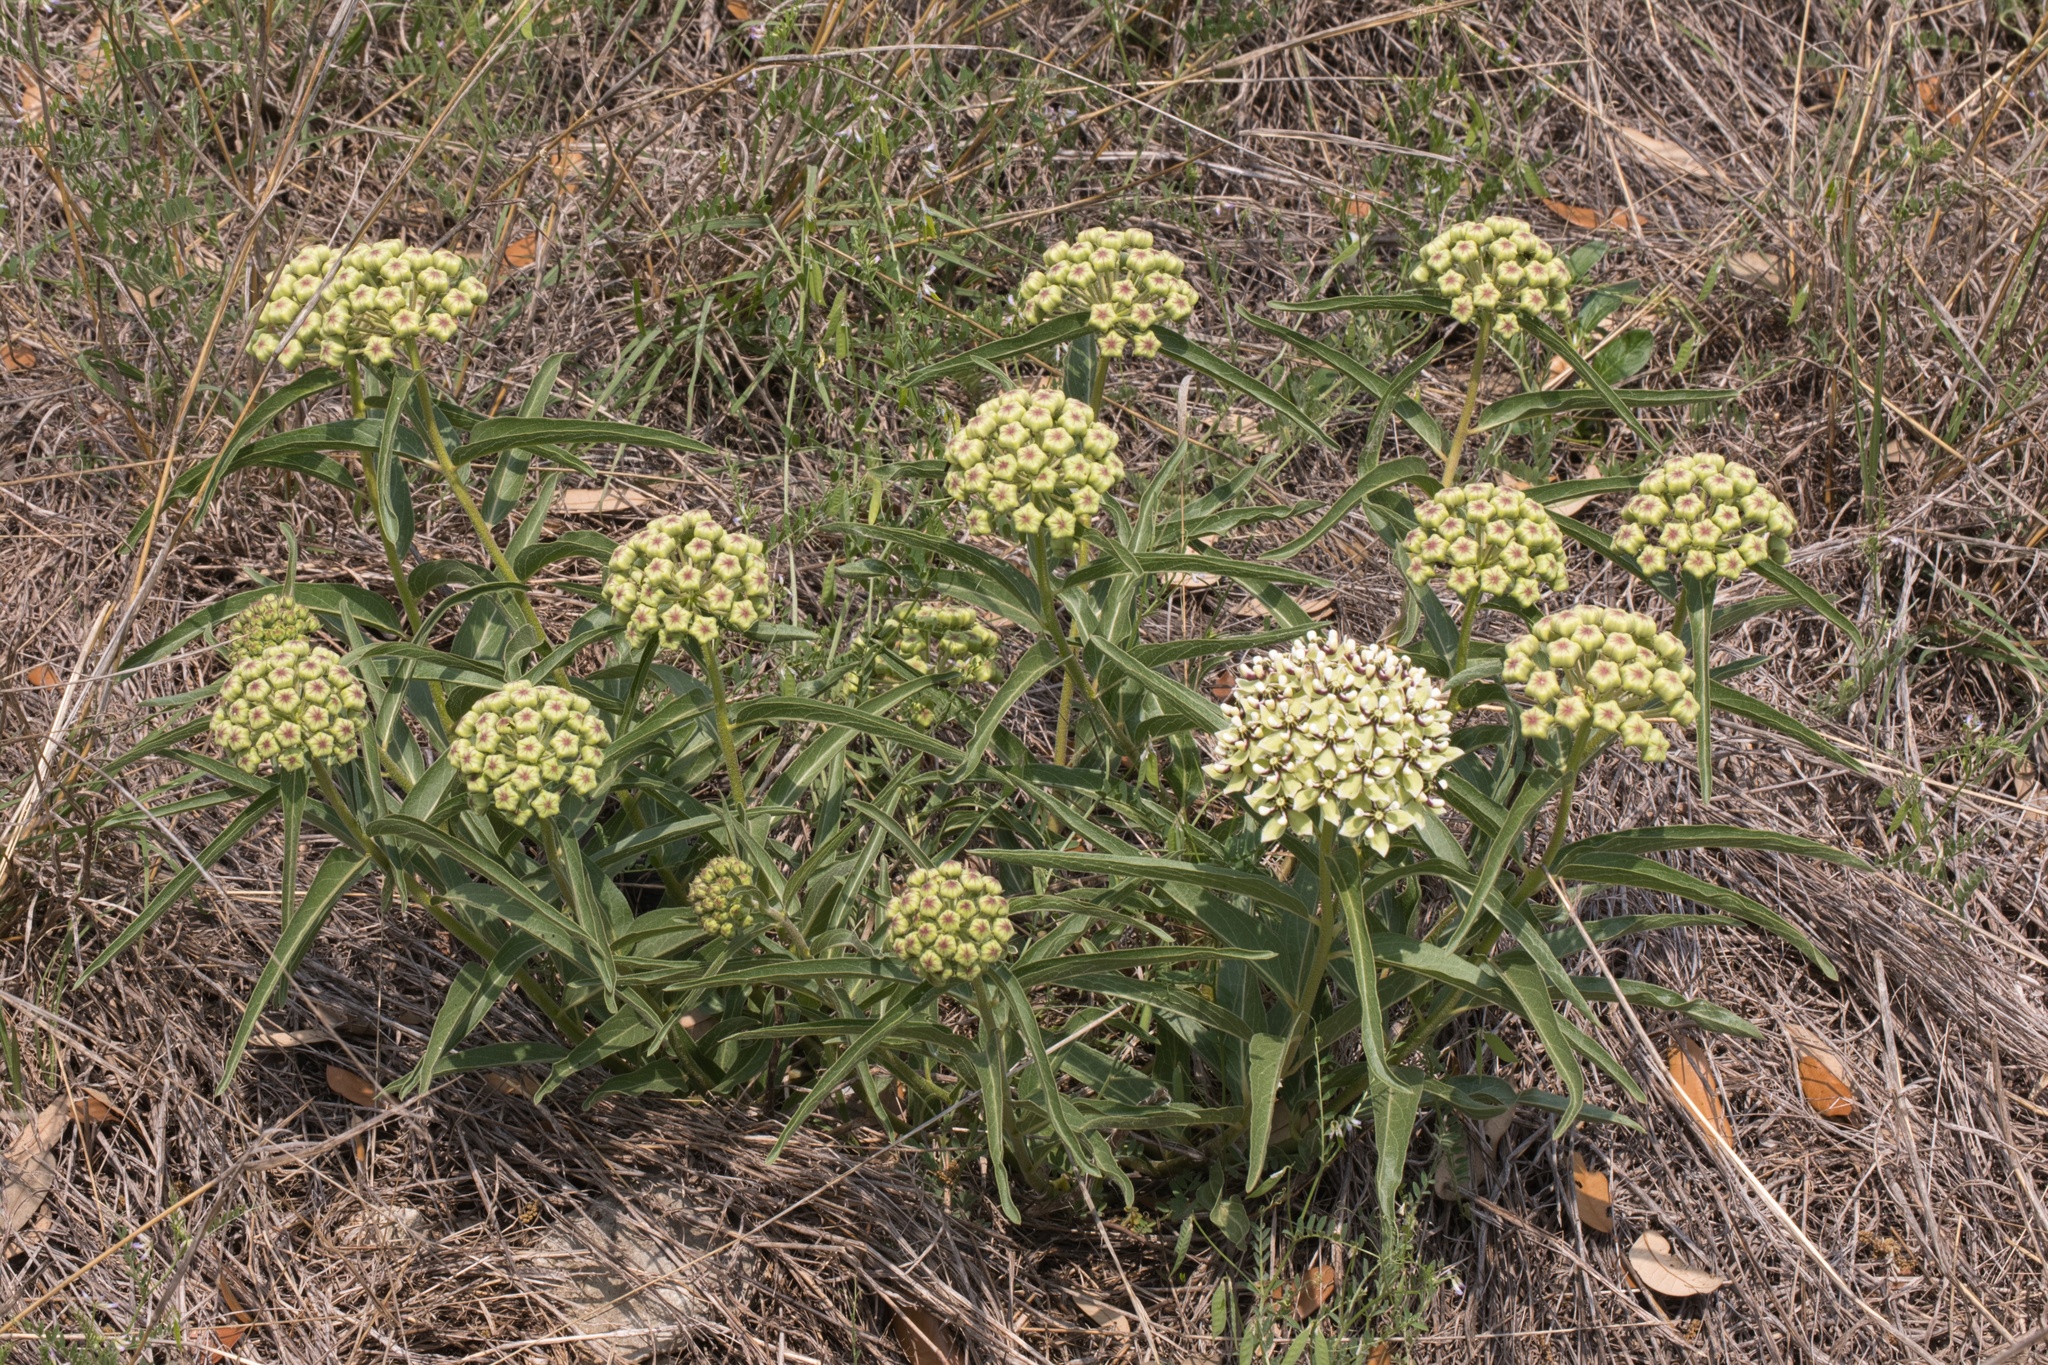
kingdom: Plantae
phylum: Tracheophyta
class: Magnoliopsida
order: Gentianales
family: Apocynaceae
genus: Asclepias
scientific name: Asclepias asperula
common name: Antelope horns
